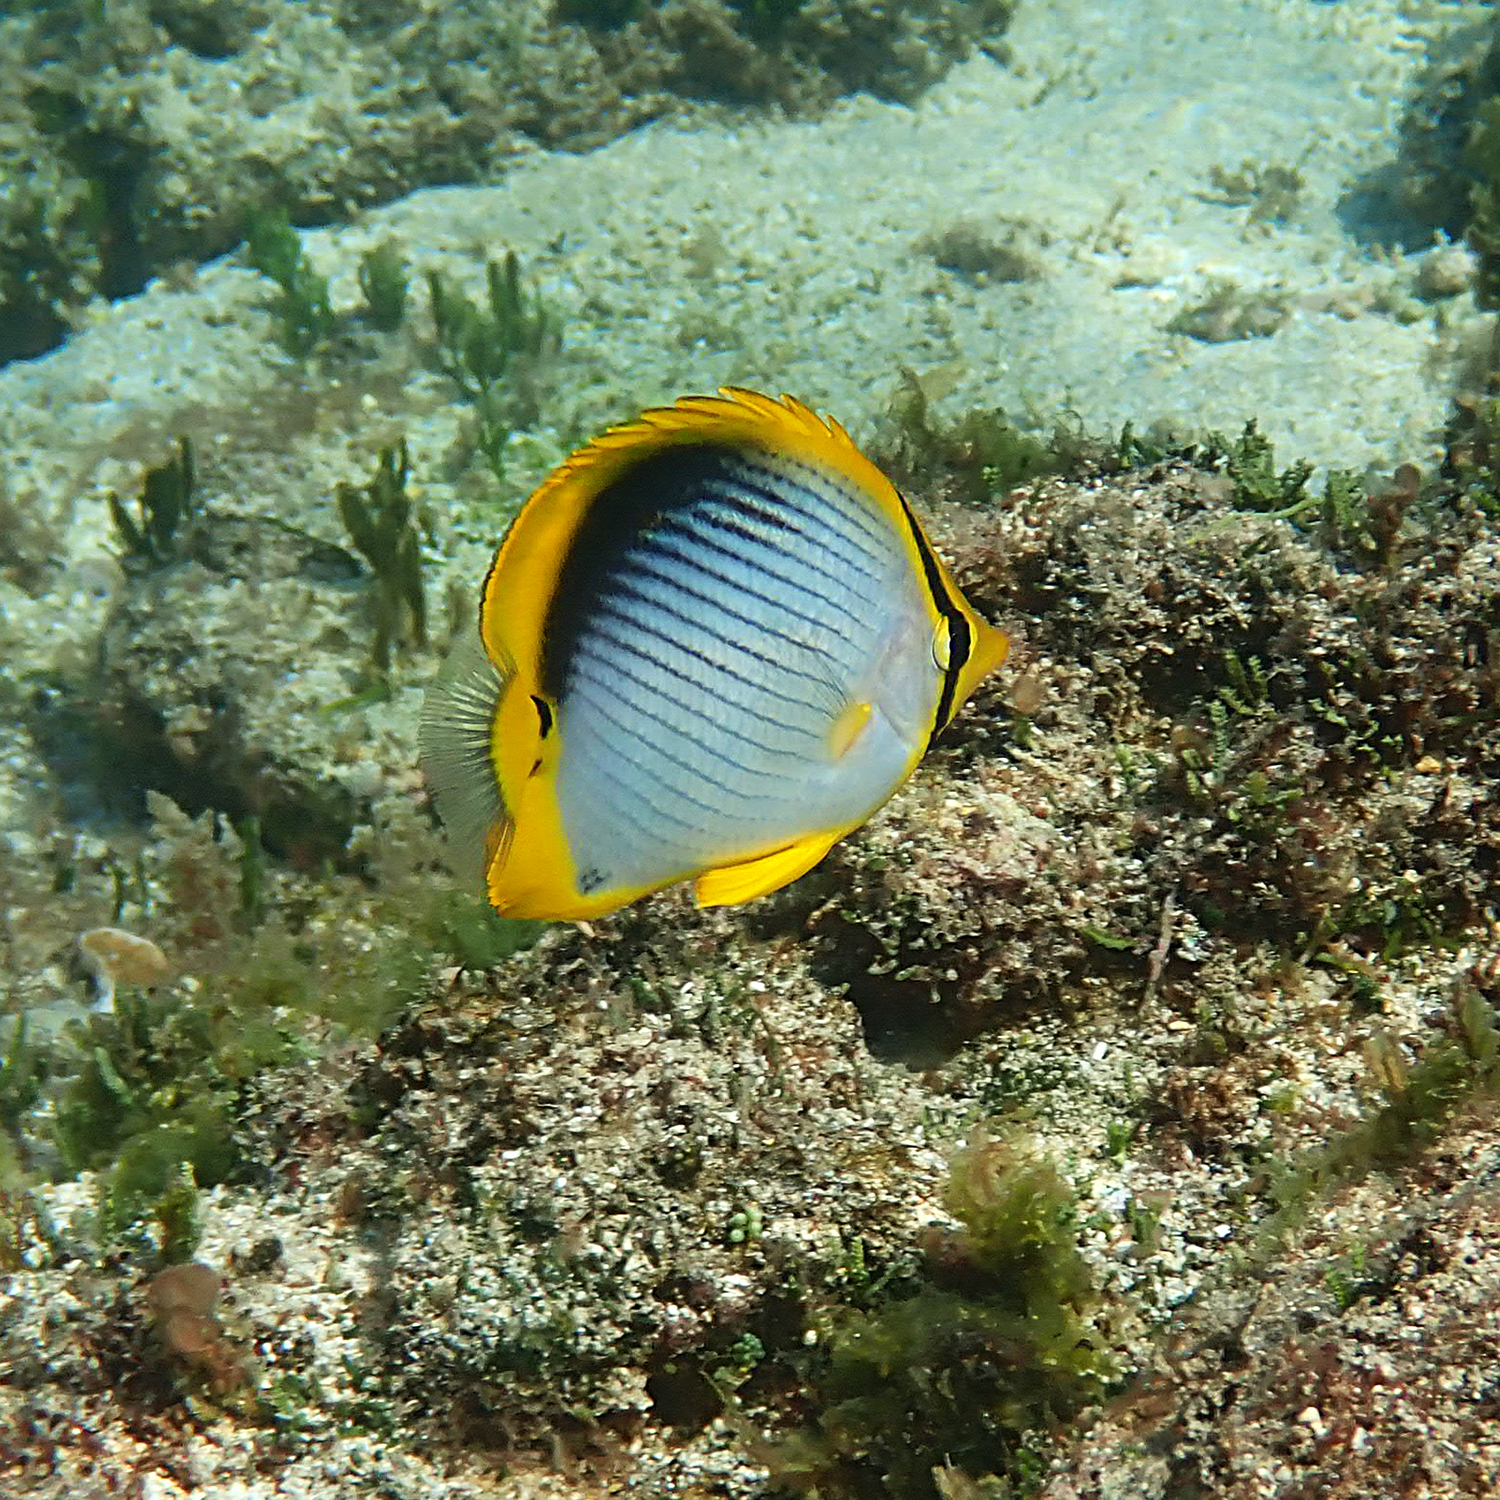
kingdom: Animalia
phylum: Chordata
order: Perciformes
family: Chaetodontidae
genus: Chaetodon
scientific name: Chaetodon melannotus
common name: Blackback butterflyfish
